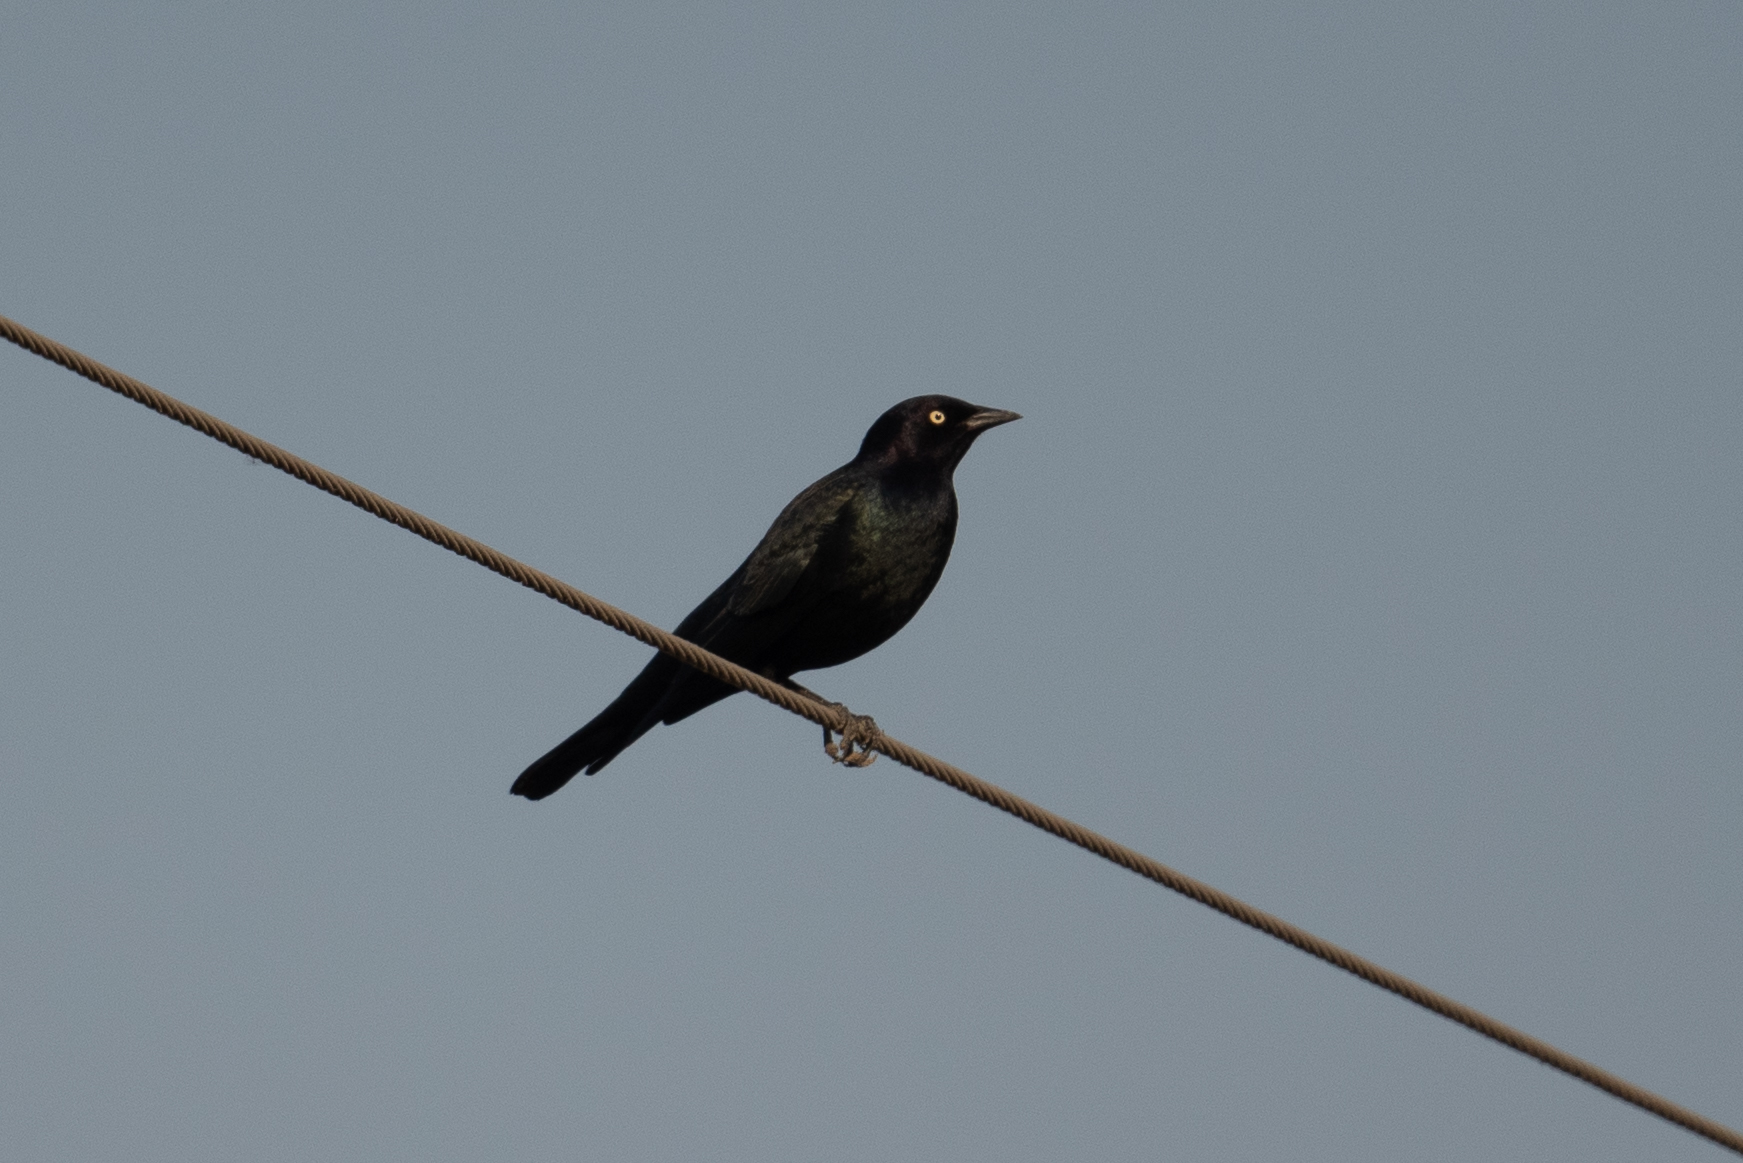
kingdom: Animalia
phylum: Chordata
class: Aves
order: Passeriformes
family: Icteridae
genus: Euphagus
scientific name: Euphagus cyanocephalus
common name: Brewer's blackbird
